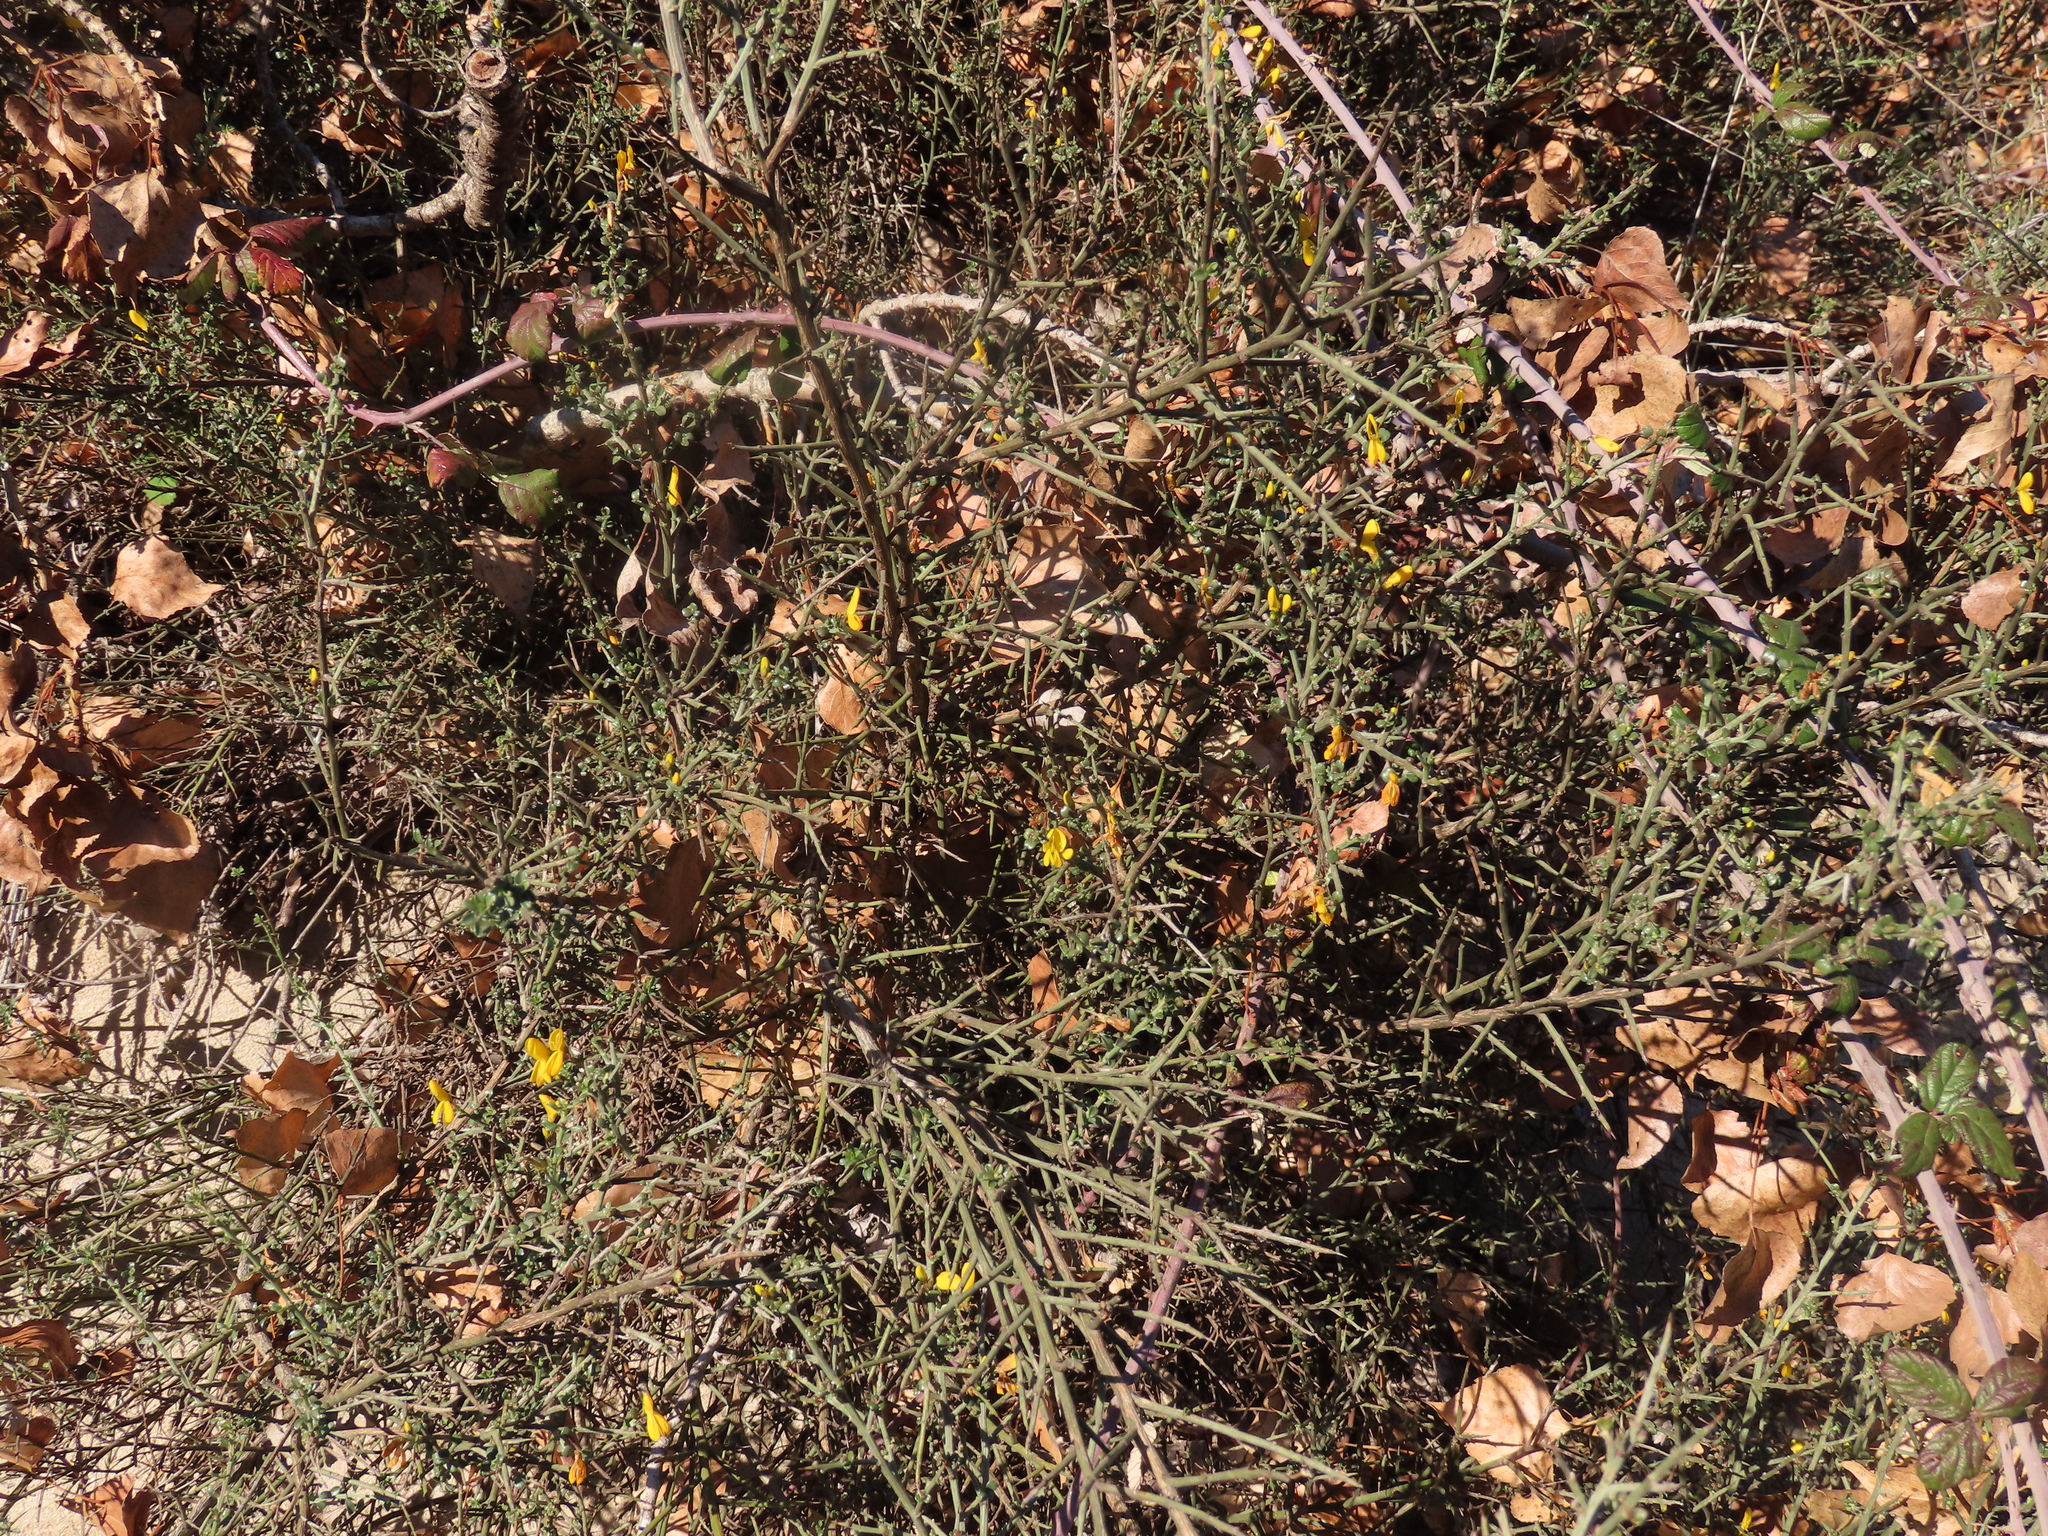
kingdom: Plantae
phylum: Tracheophyta
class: Magnoliopsida
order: Fabales
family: Fabaceae
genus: Genista
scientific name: Genista scorpius
